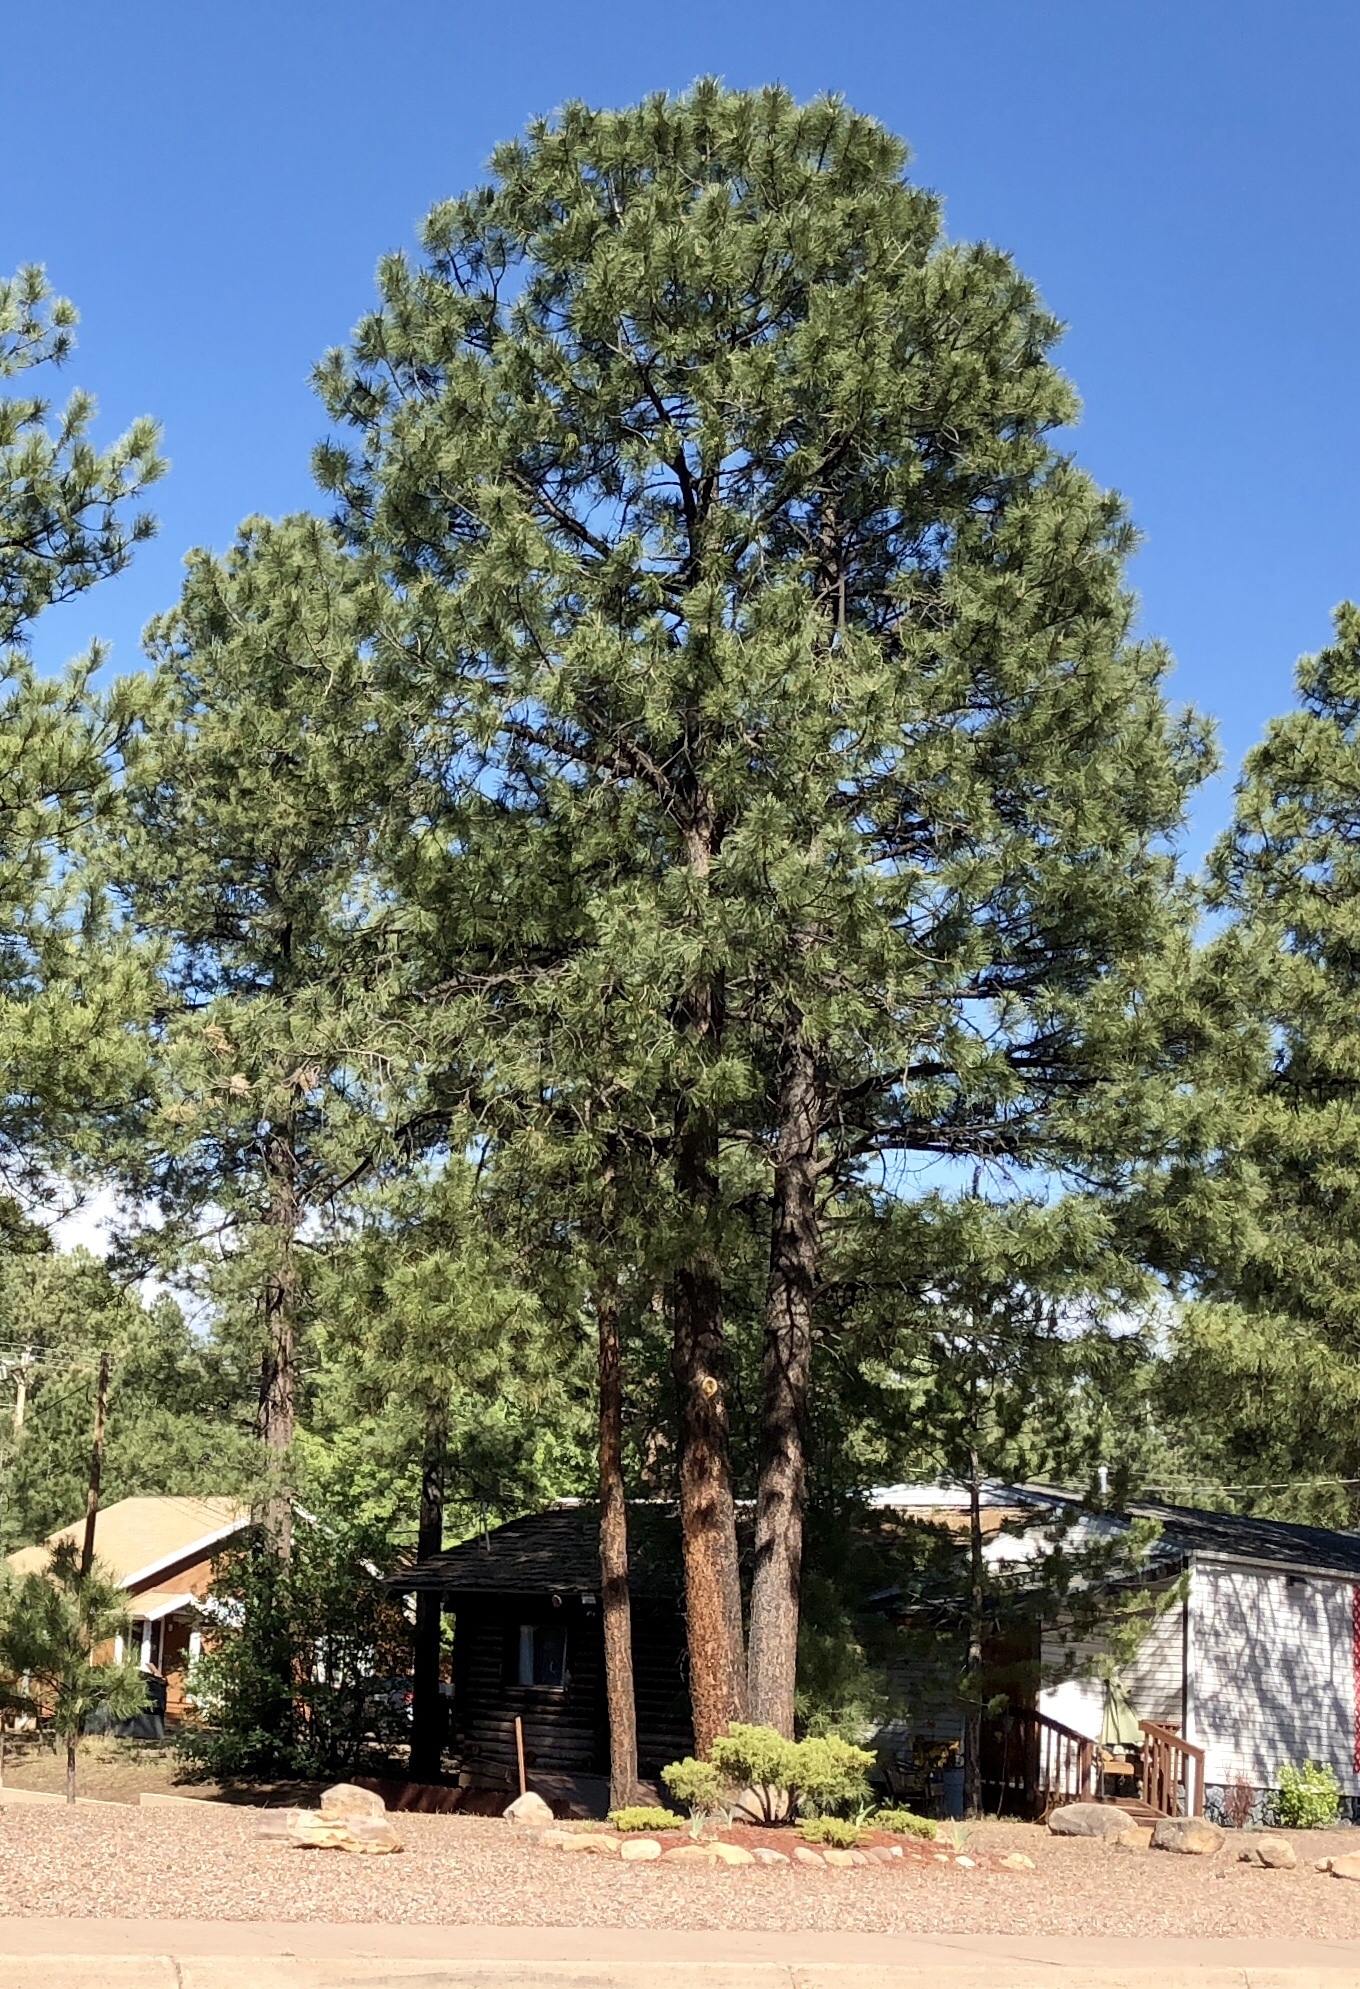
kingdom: Plantae
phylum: Tracheophyta
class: Pinopsida
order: Pinales
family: Pinaceae
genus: Pinus
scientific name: Pinus ponderosa
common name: Western yellow-pine
